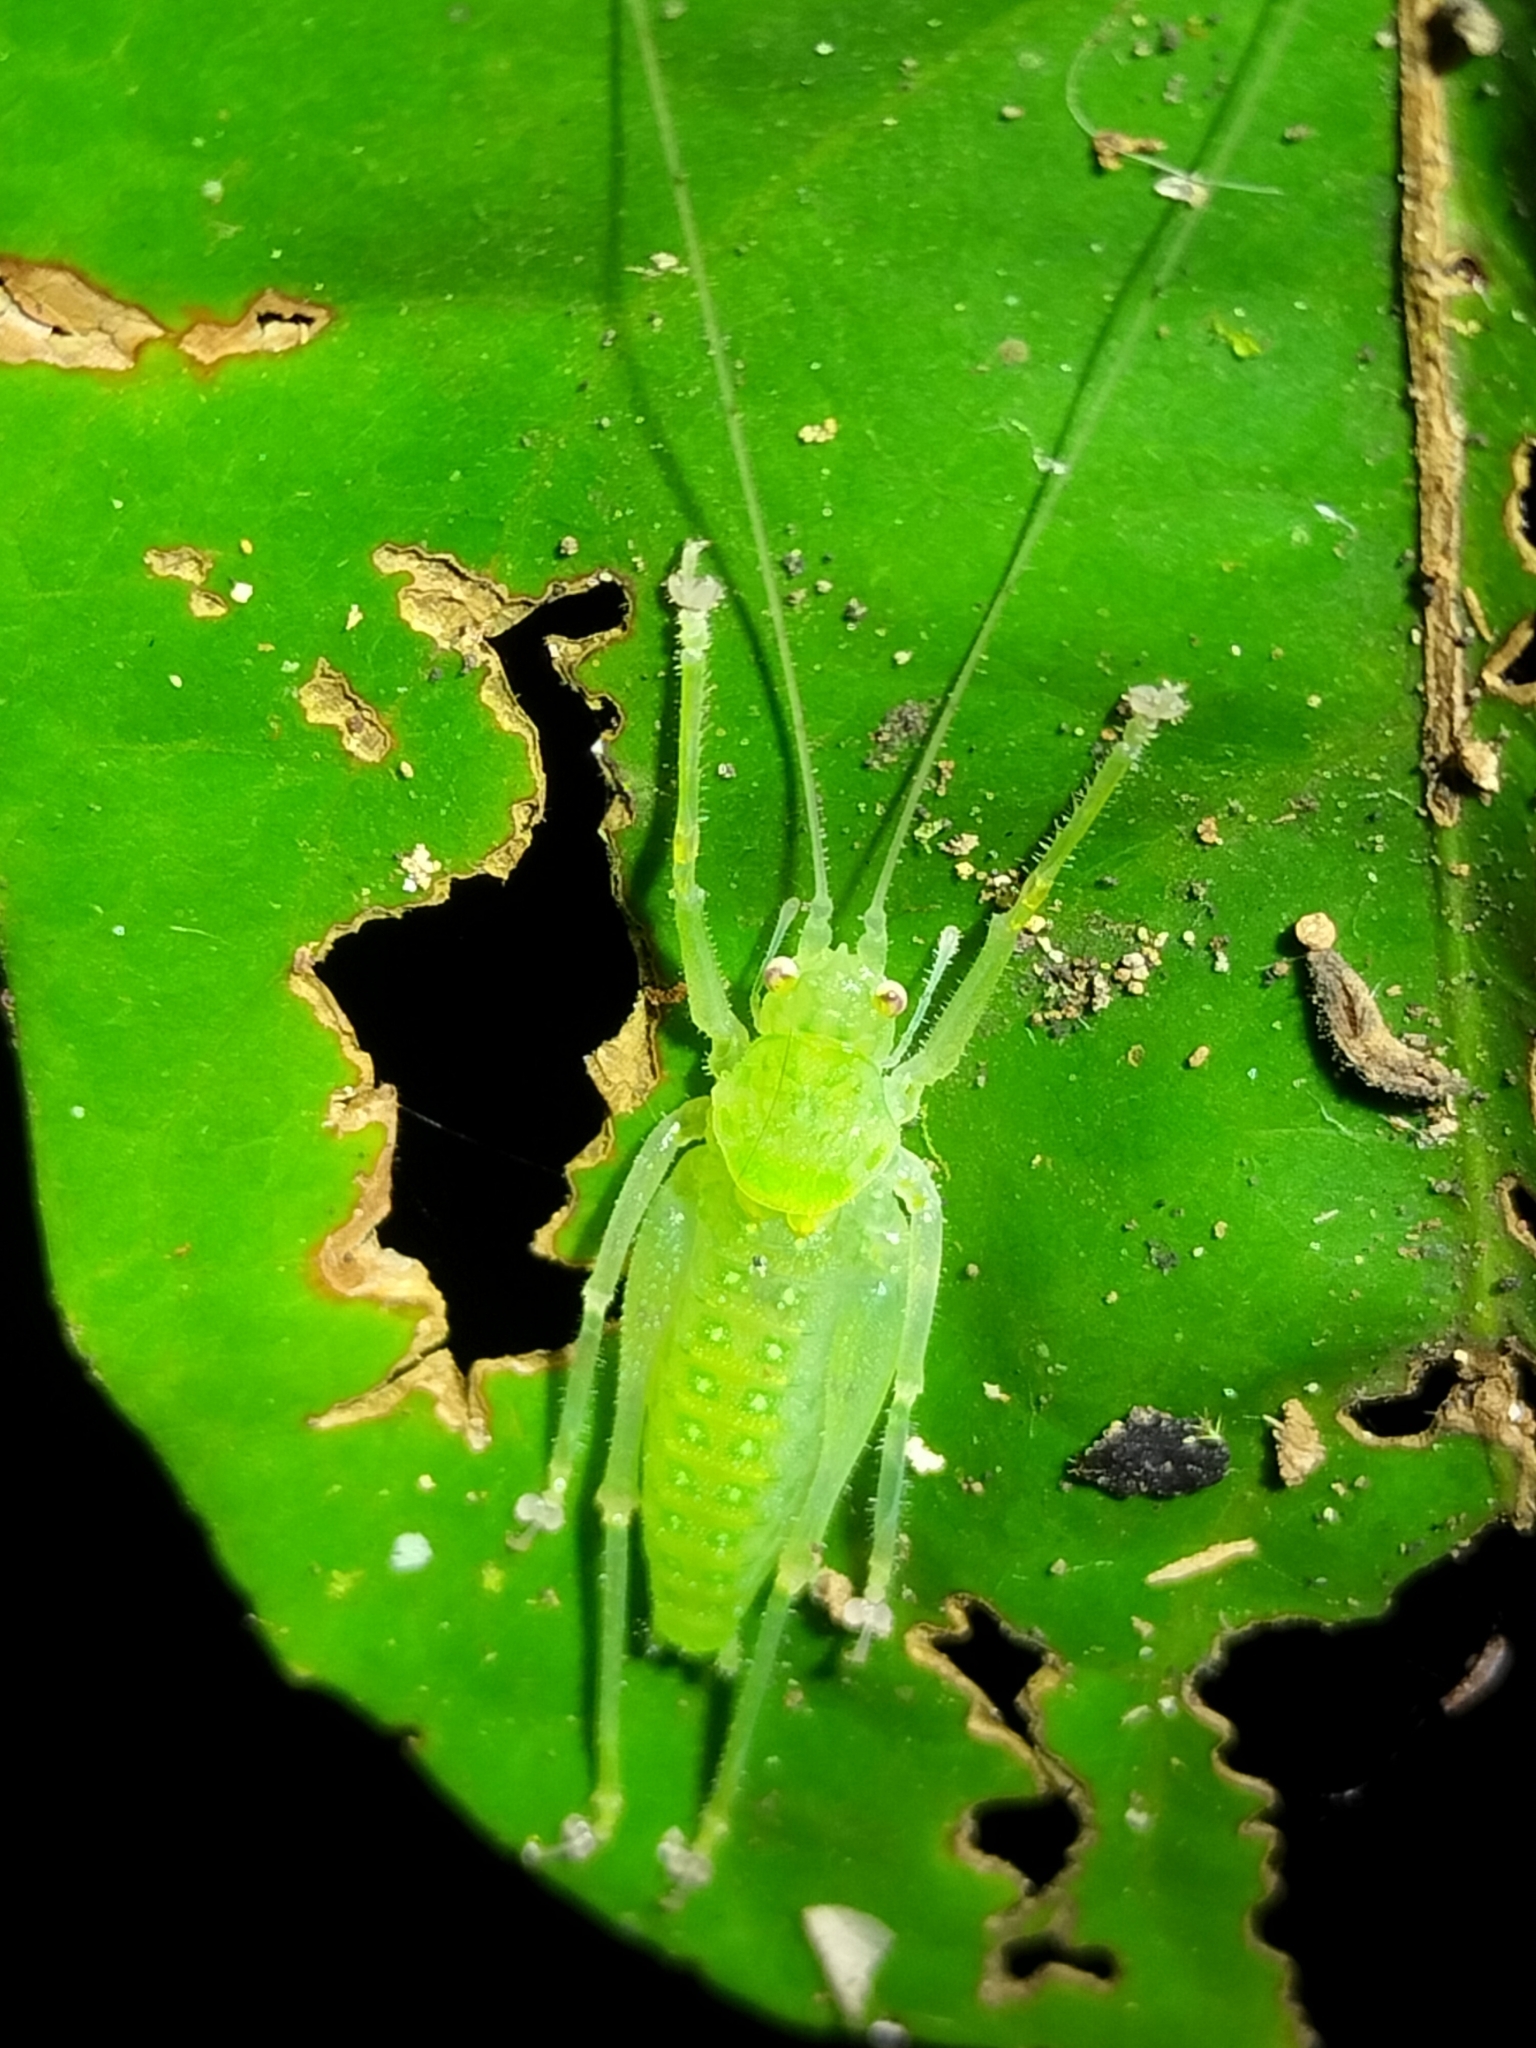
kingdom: Animalia
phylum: Arthropoda
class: Insecta
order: Orthoptera
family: Tettigoniidae
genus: Miniagraecia
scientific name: Miniagraecia milyali
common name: Tiny forest green katydid
